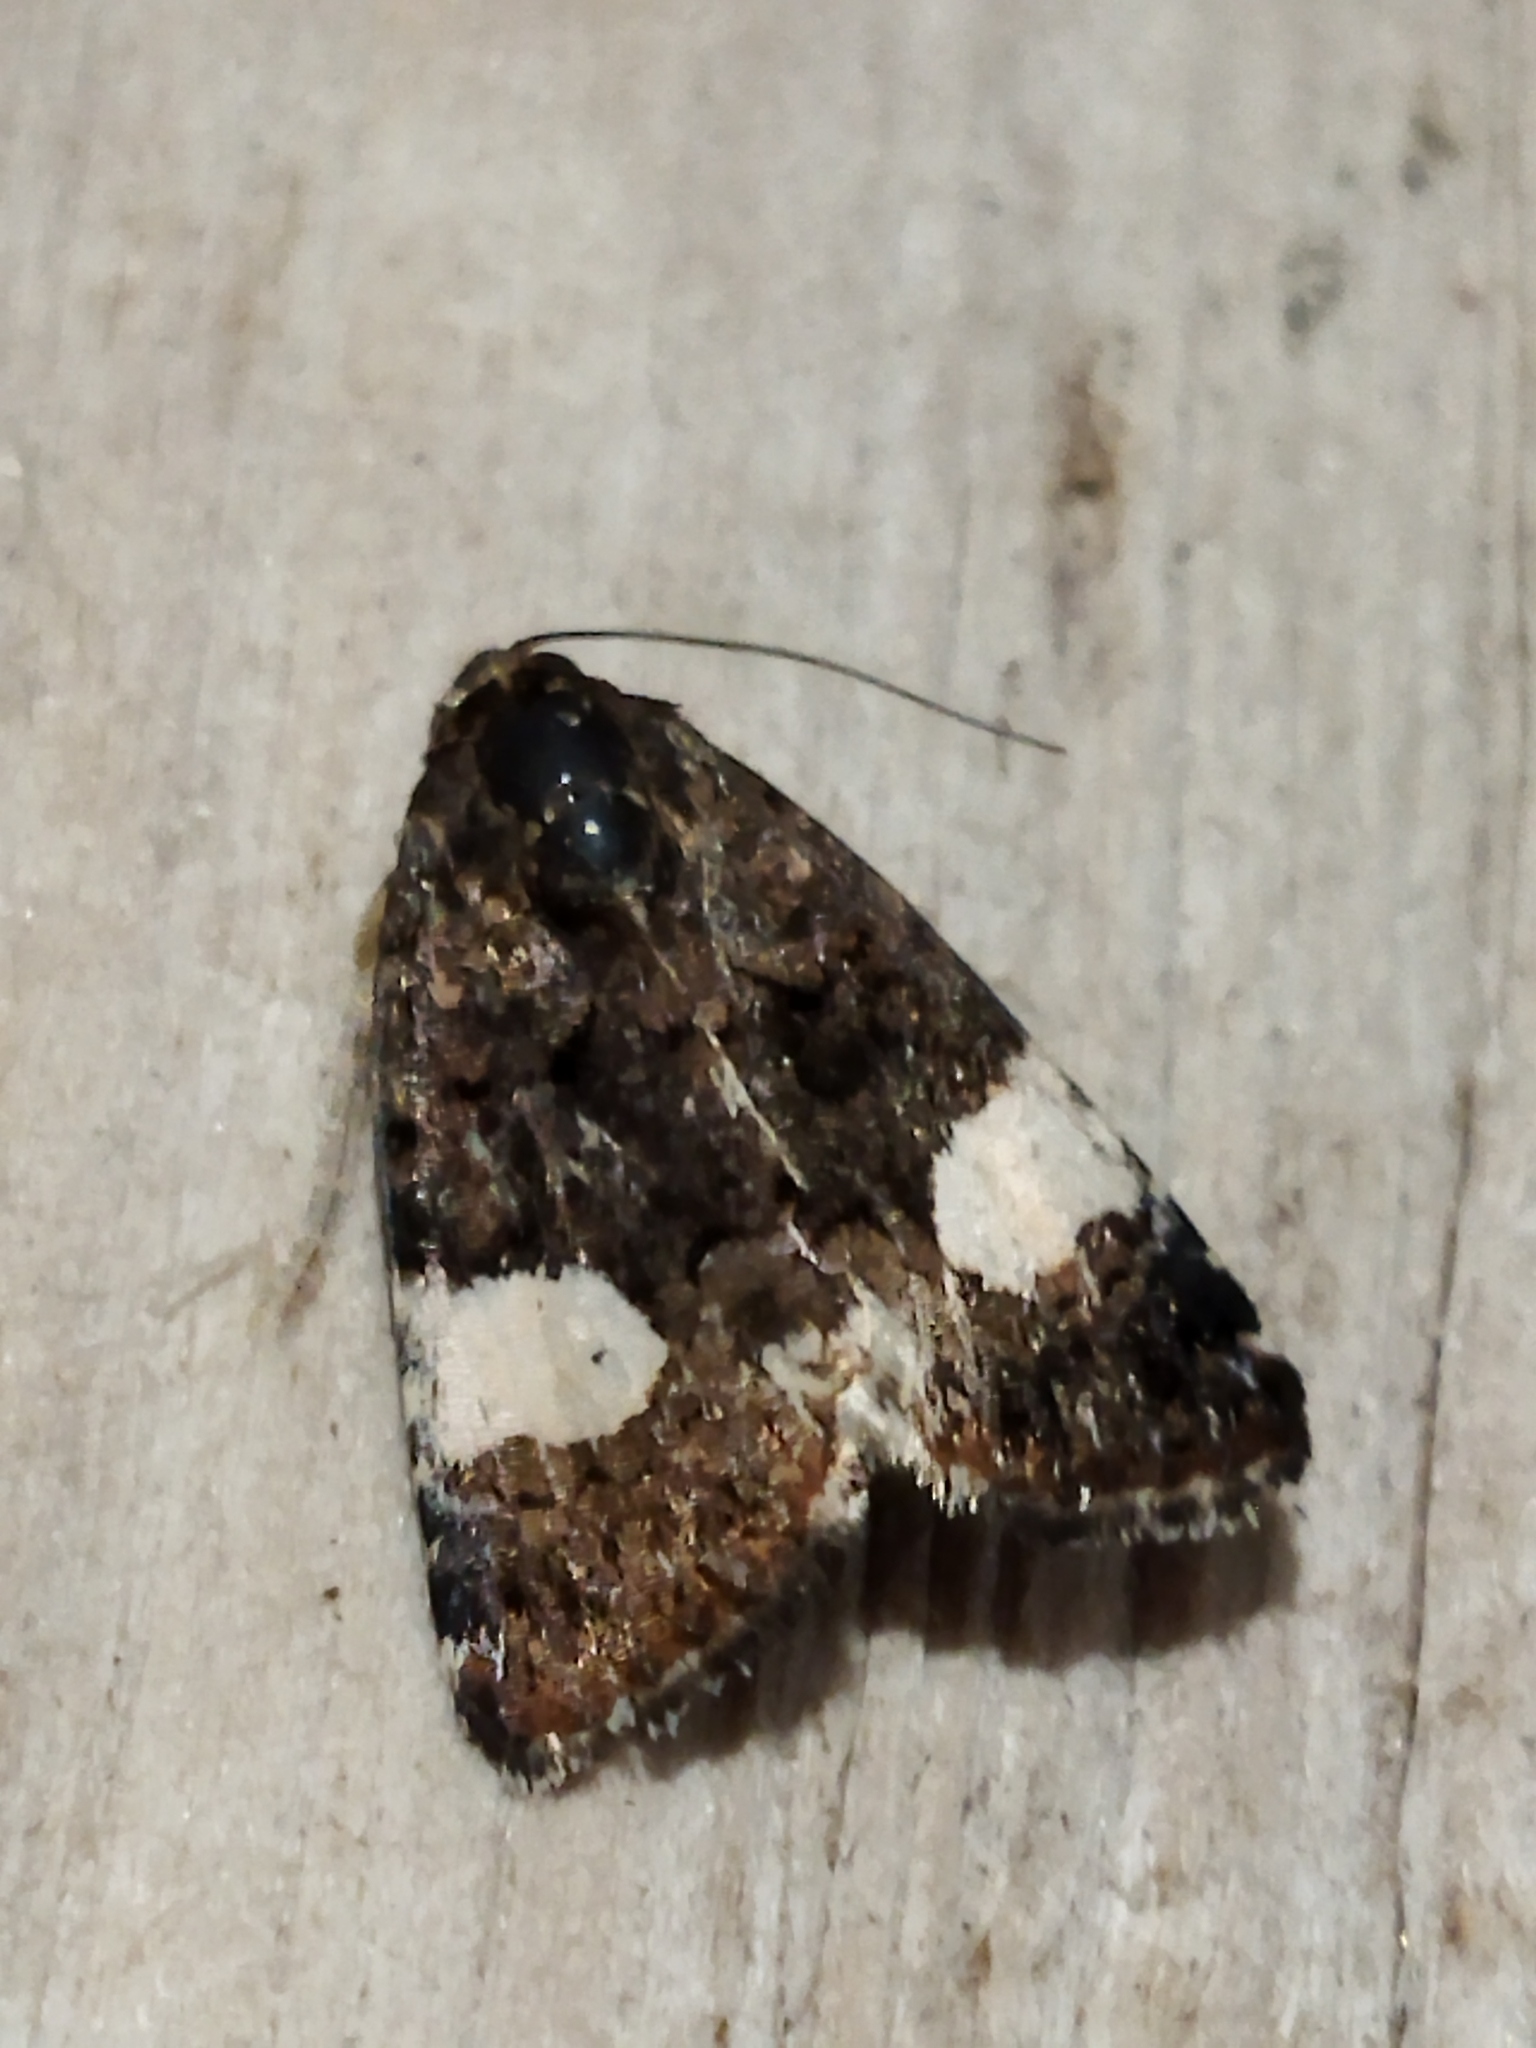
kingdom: Animalia
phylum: Arthropoda
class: Insecta
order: Lepidoptera
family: Erebidae
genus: Tyta
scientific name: Tyta luctuosa
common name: Four-spotted
